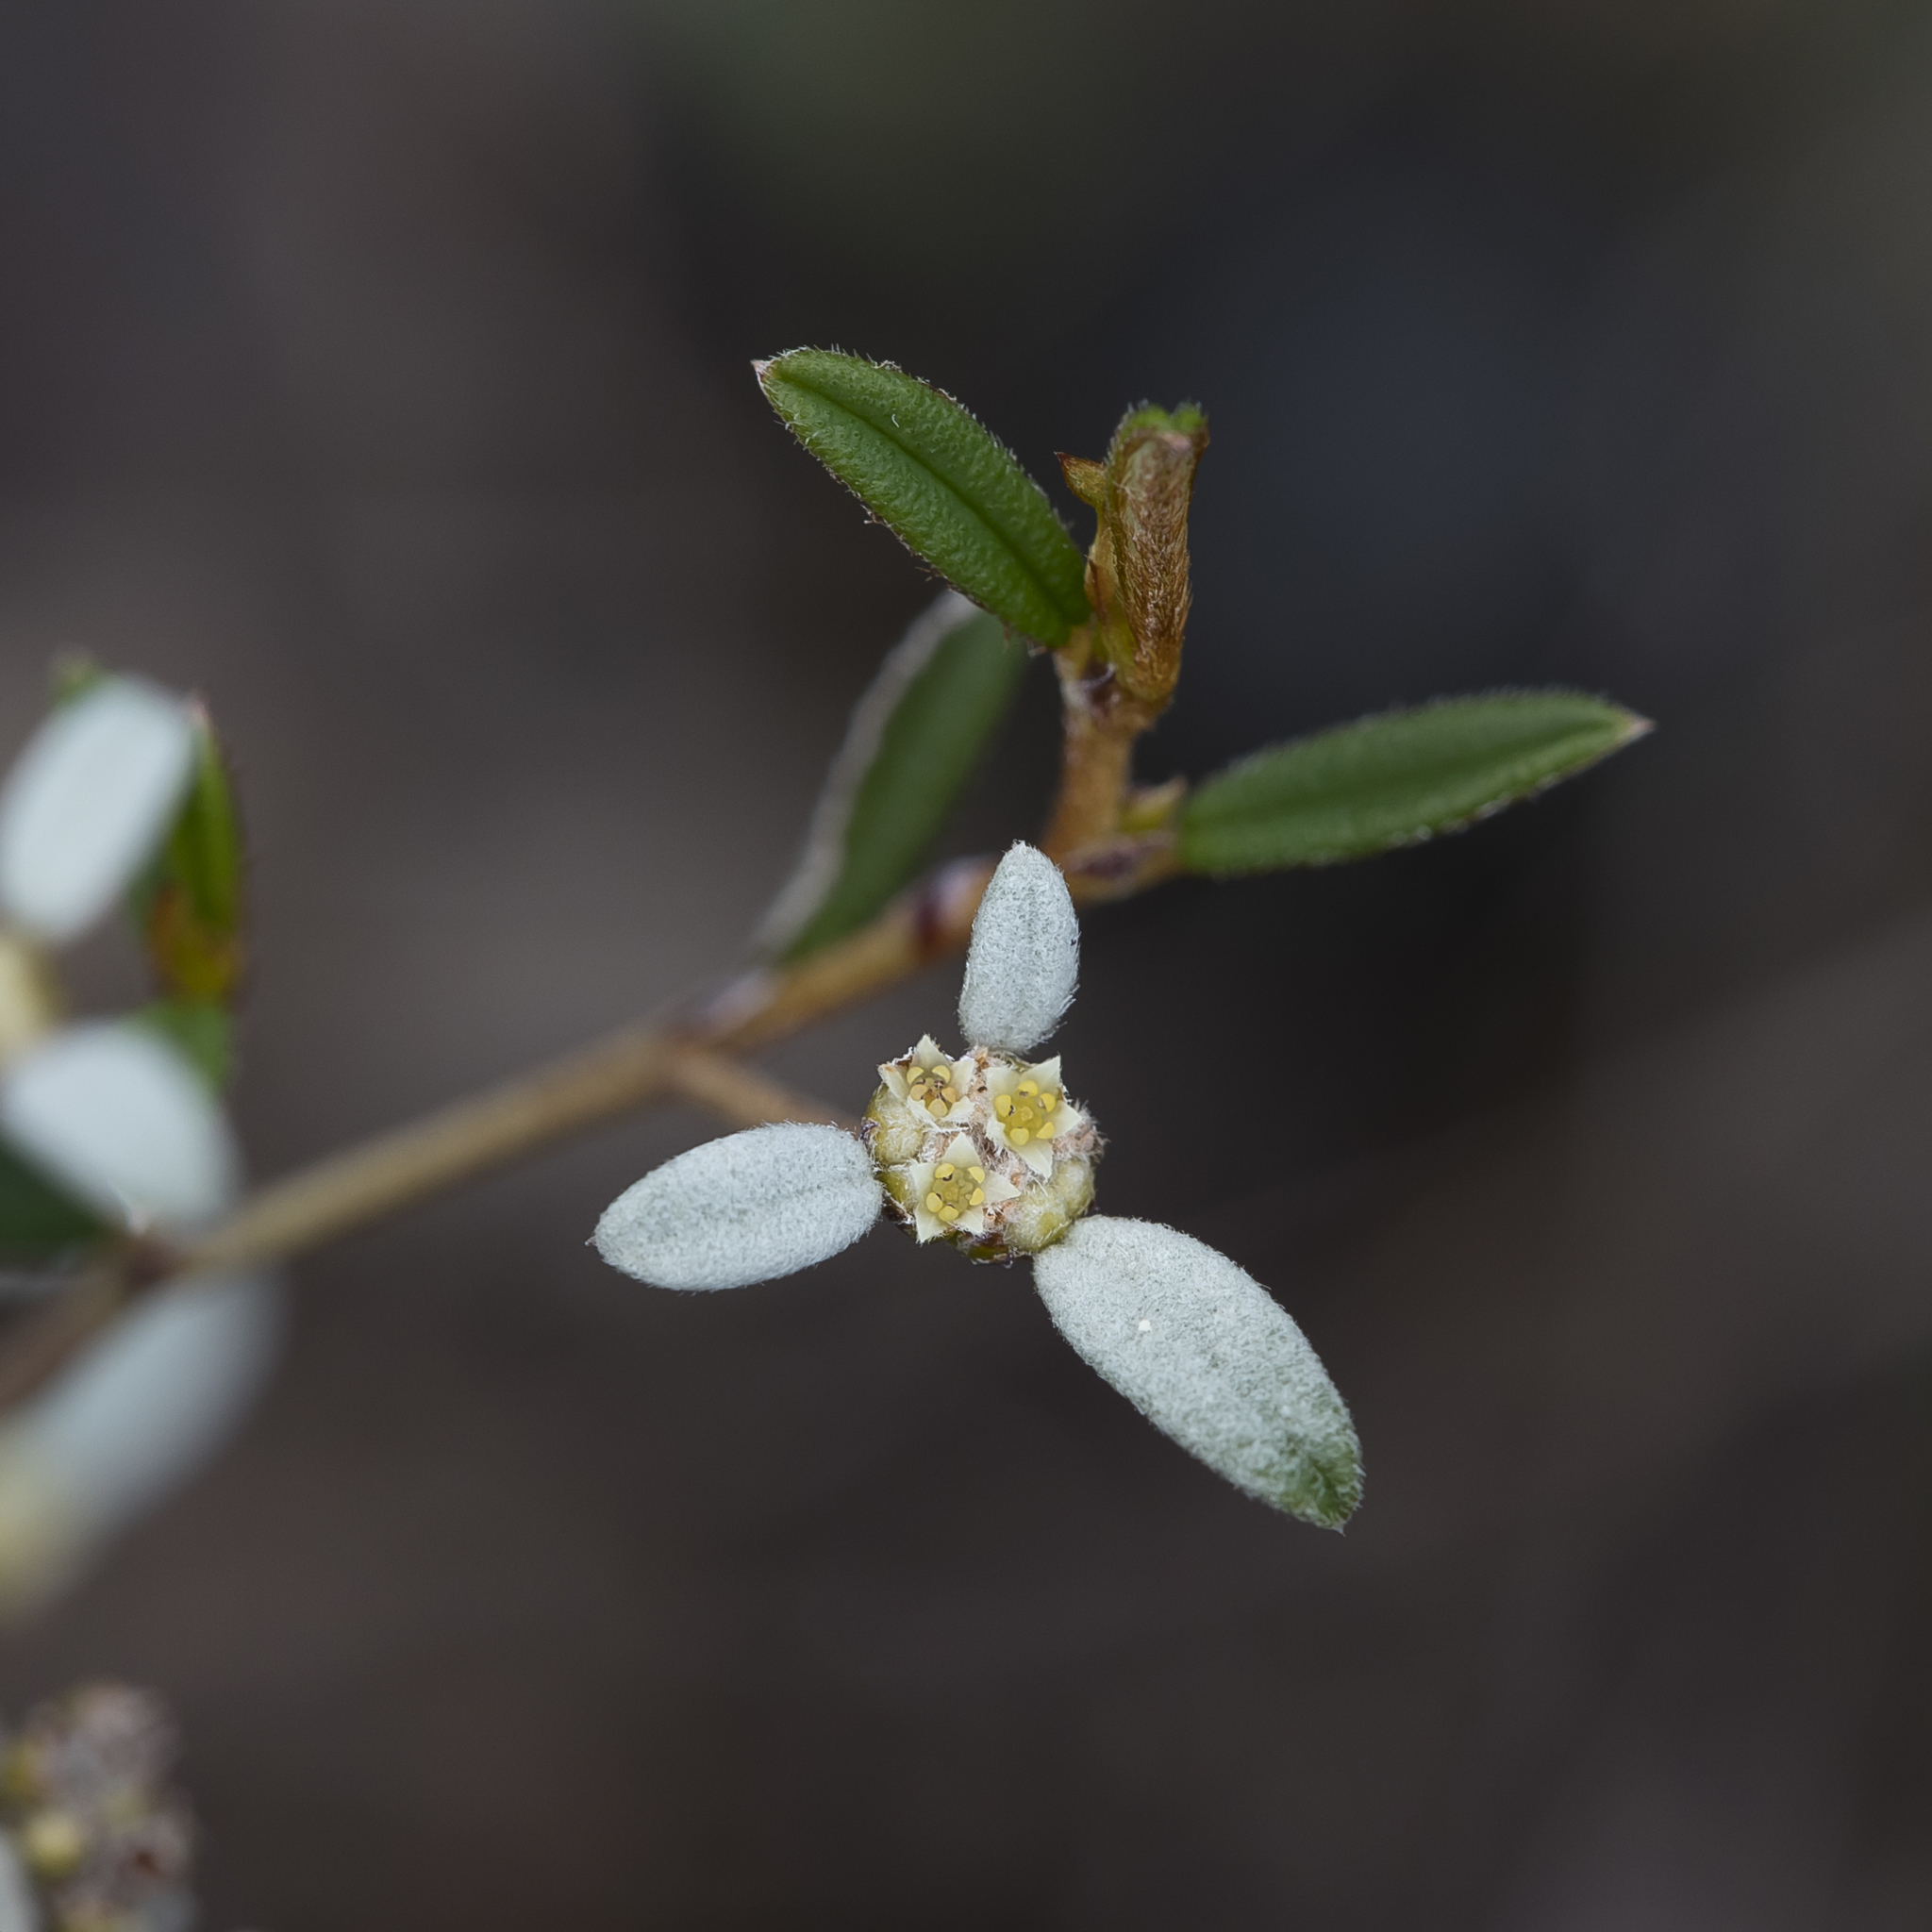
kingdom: Plantae
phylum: Tracheophyta
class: Magnoliopsida
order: Rosales
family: Rhamnaceae
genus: Spyridium
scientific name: Spyridium vexilliferum
